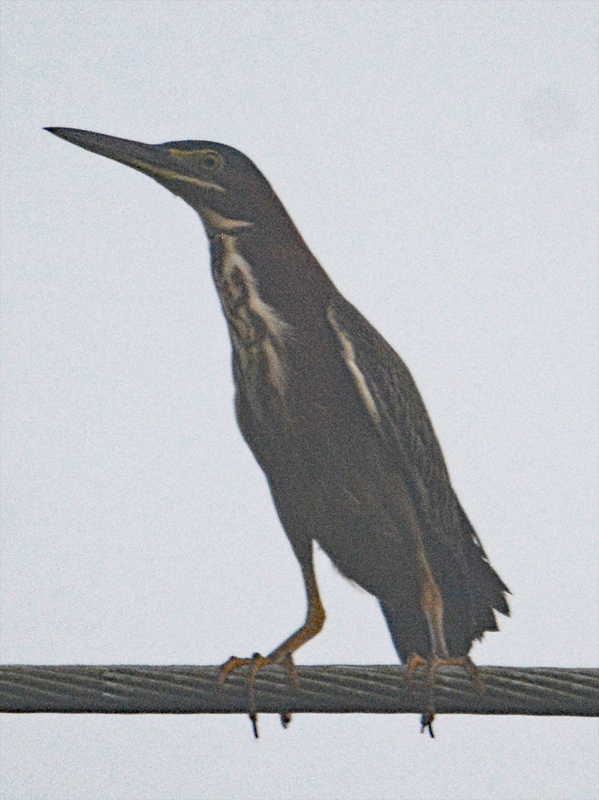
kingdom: Animalia
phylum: Chordata
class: Aves
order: Pelecaniformes
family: Ardeidae
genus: Butorides
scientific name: Butorides virescens
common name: Green heron
